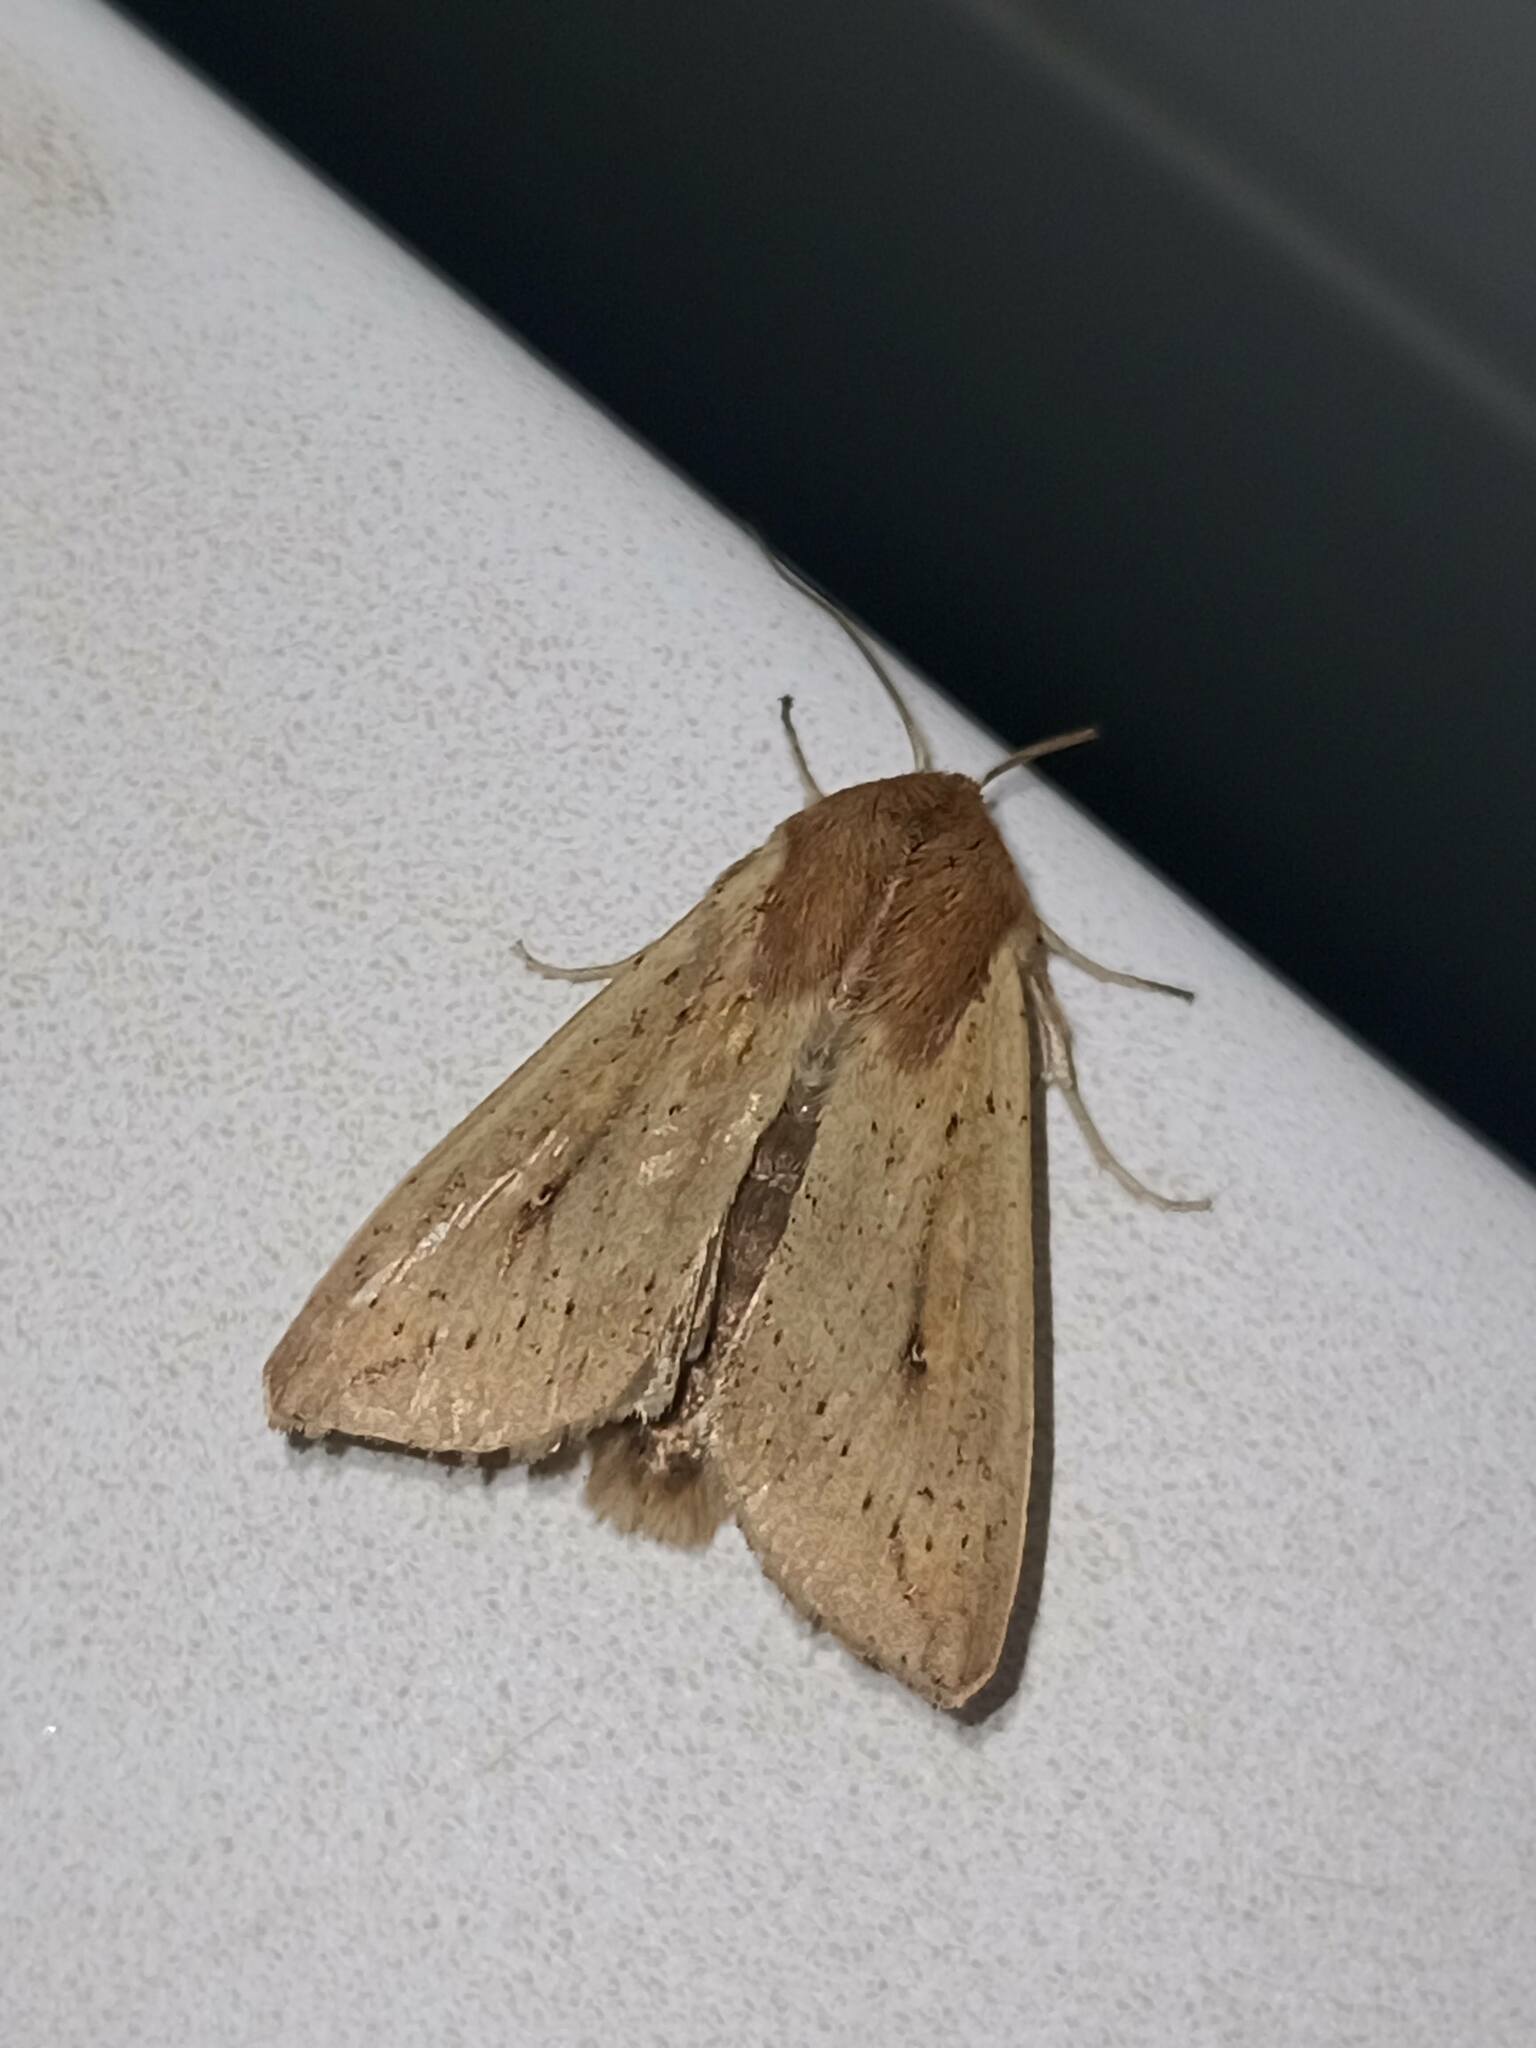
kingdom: Animalia
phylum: Arthropoda
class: Insecta
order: Lepidoptera
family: Noctuidae
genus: Mythimna
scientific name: Mythimna unipuncta
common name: White-speck
